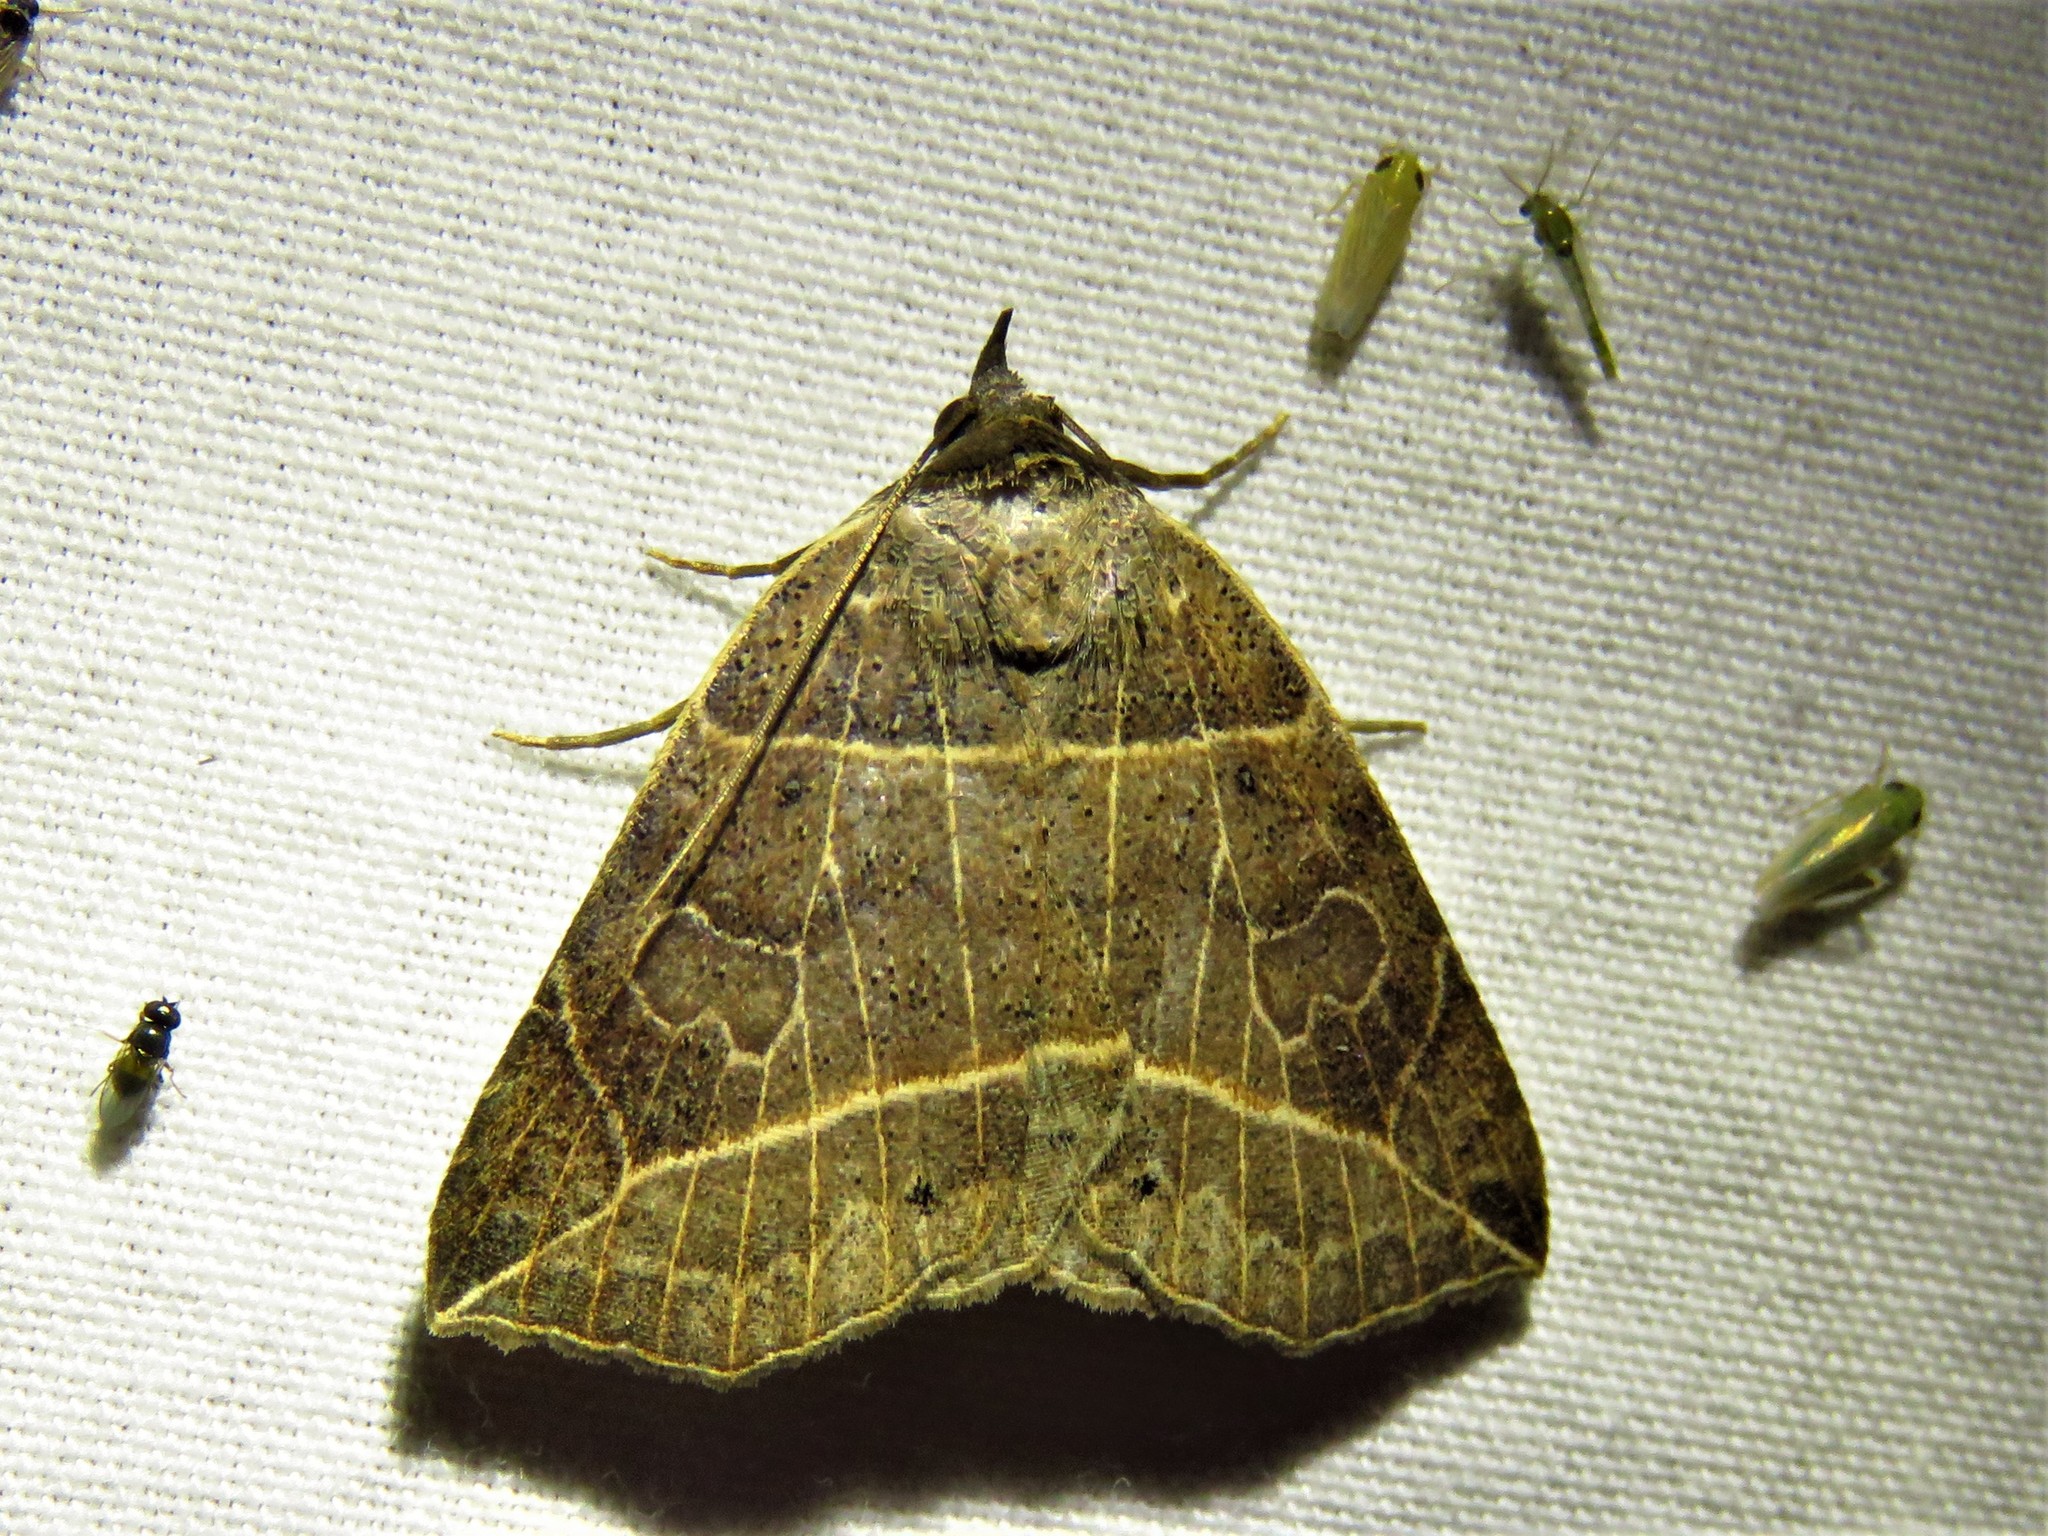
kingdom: Animalia
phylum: Arthropoda
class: Insecta
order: Lepidoptera
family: Erebidae
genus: Isogona
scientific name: Isogona tenuis
